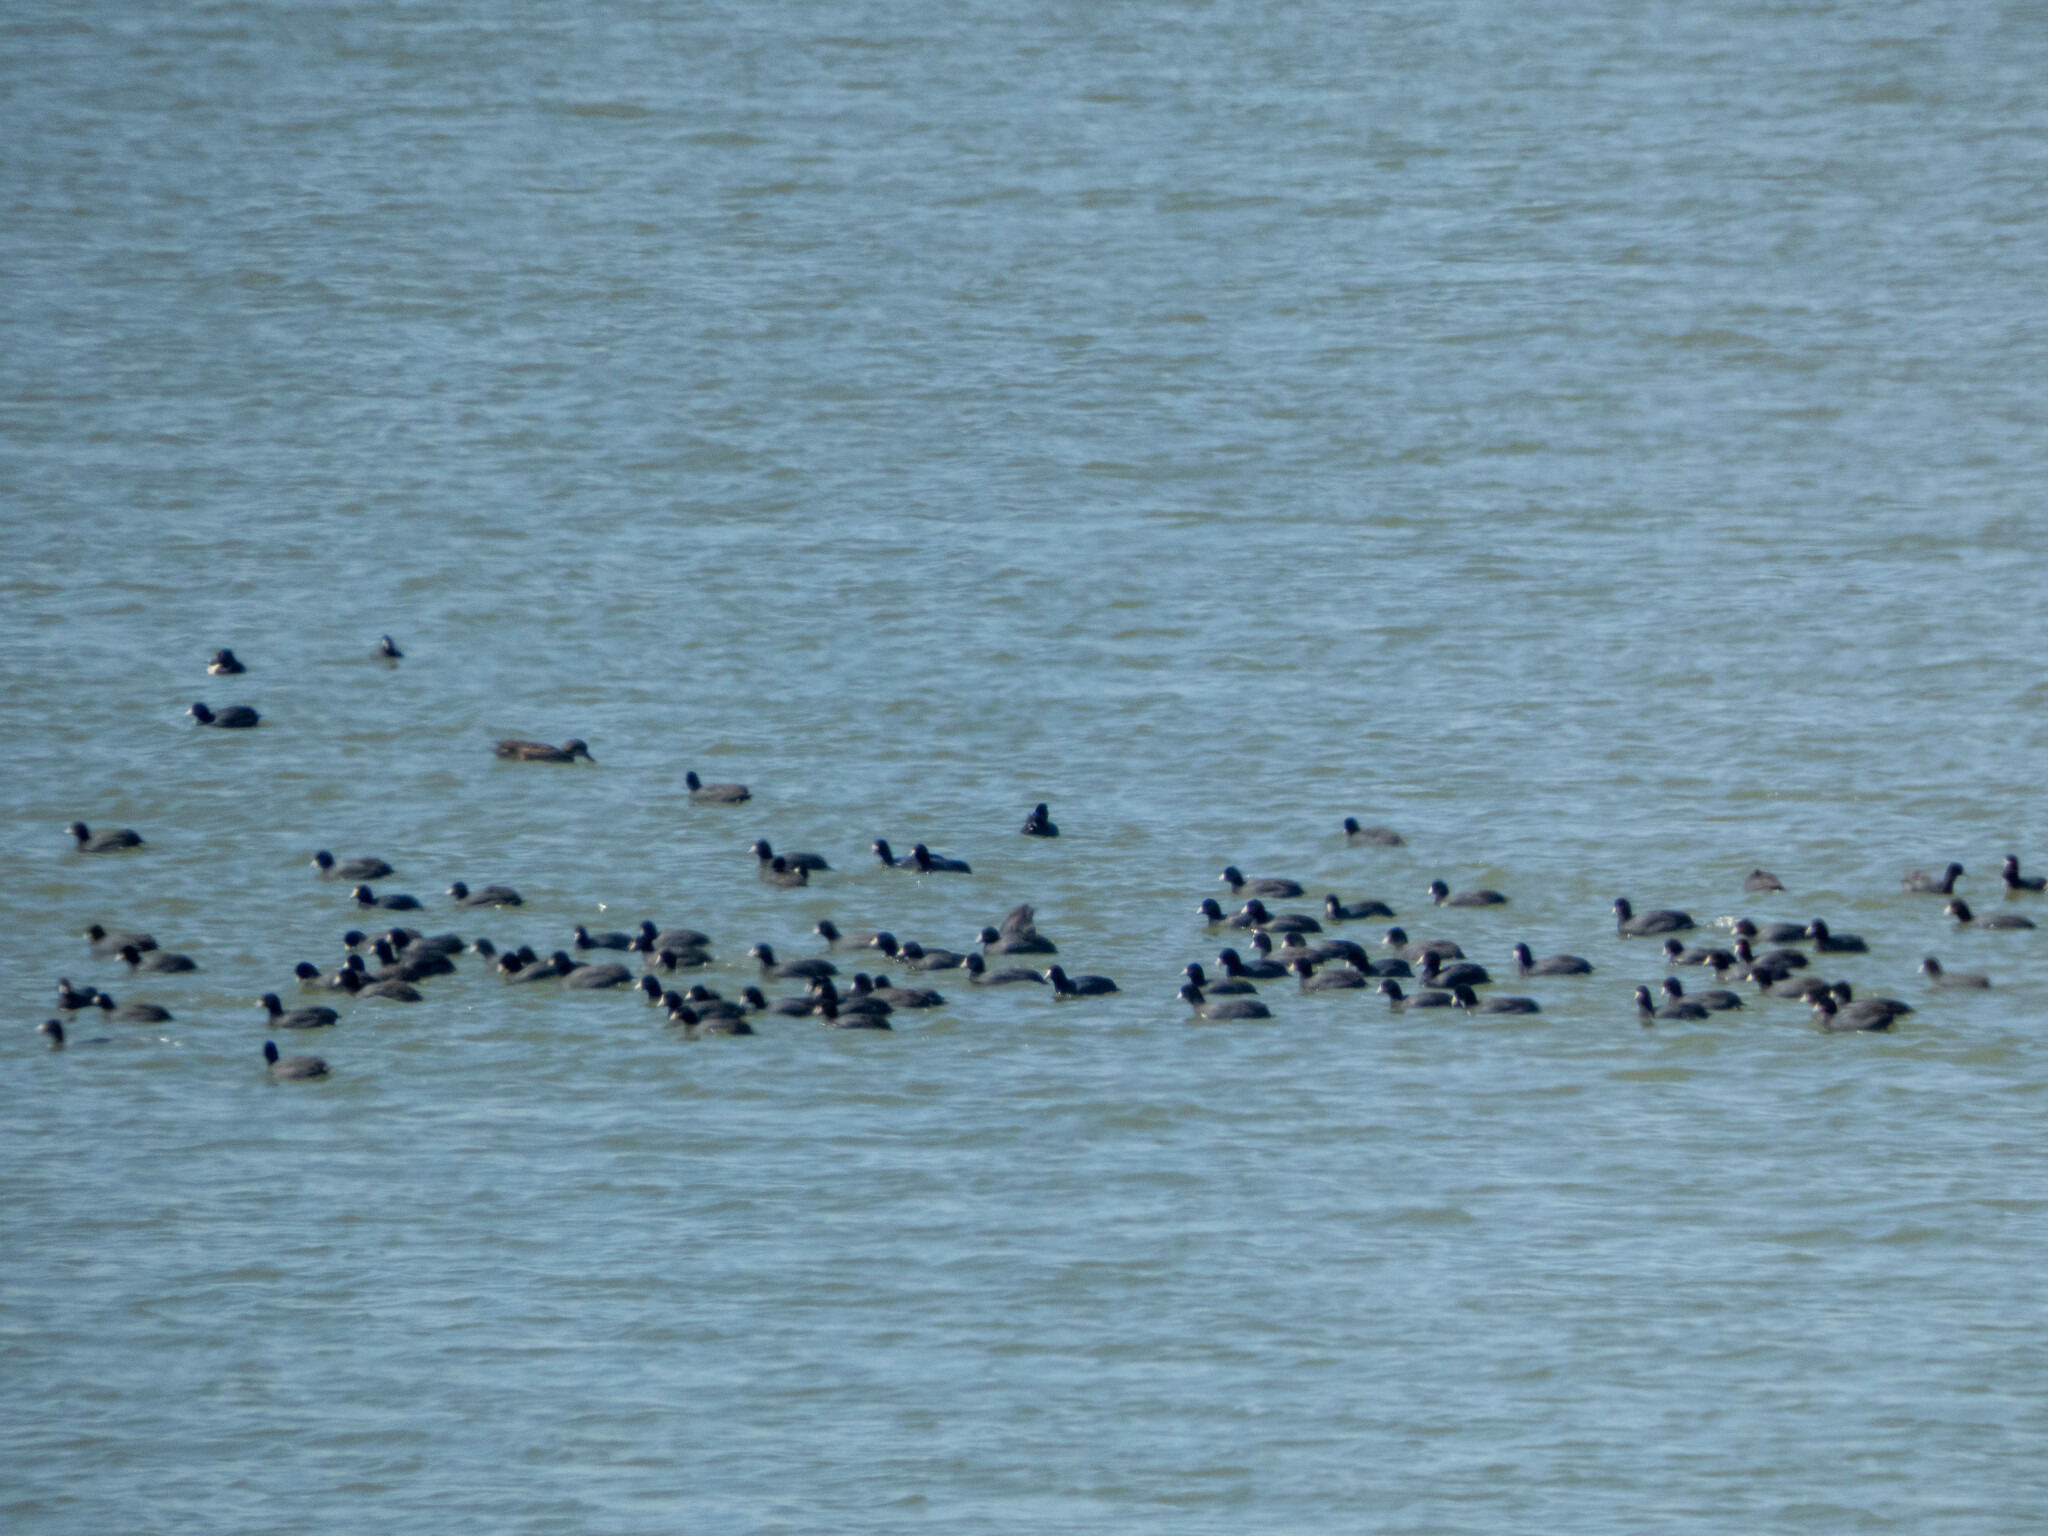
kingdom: Animalia
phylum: Chordata
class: Aves
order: Gruiformes
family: Rallidae
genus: Fulica
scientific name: Fulica americana
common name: American coot
